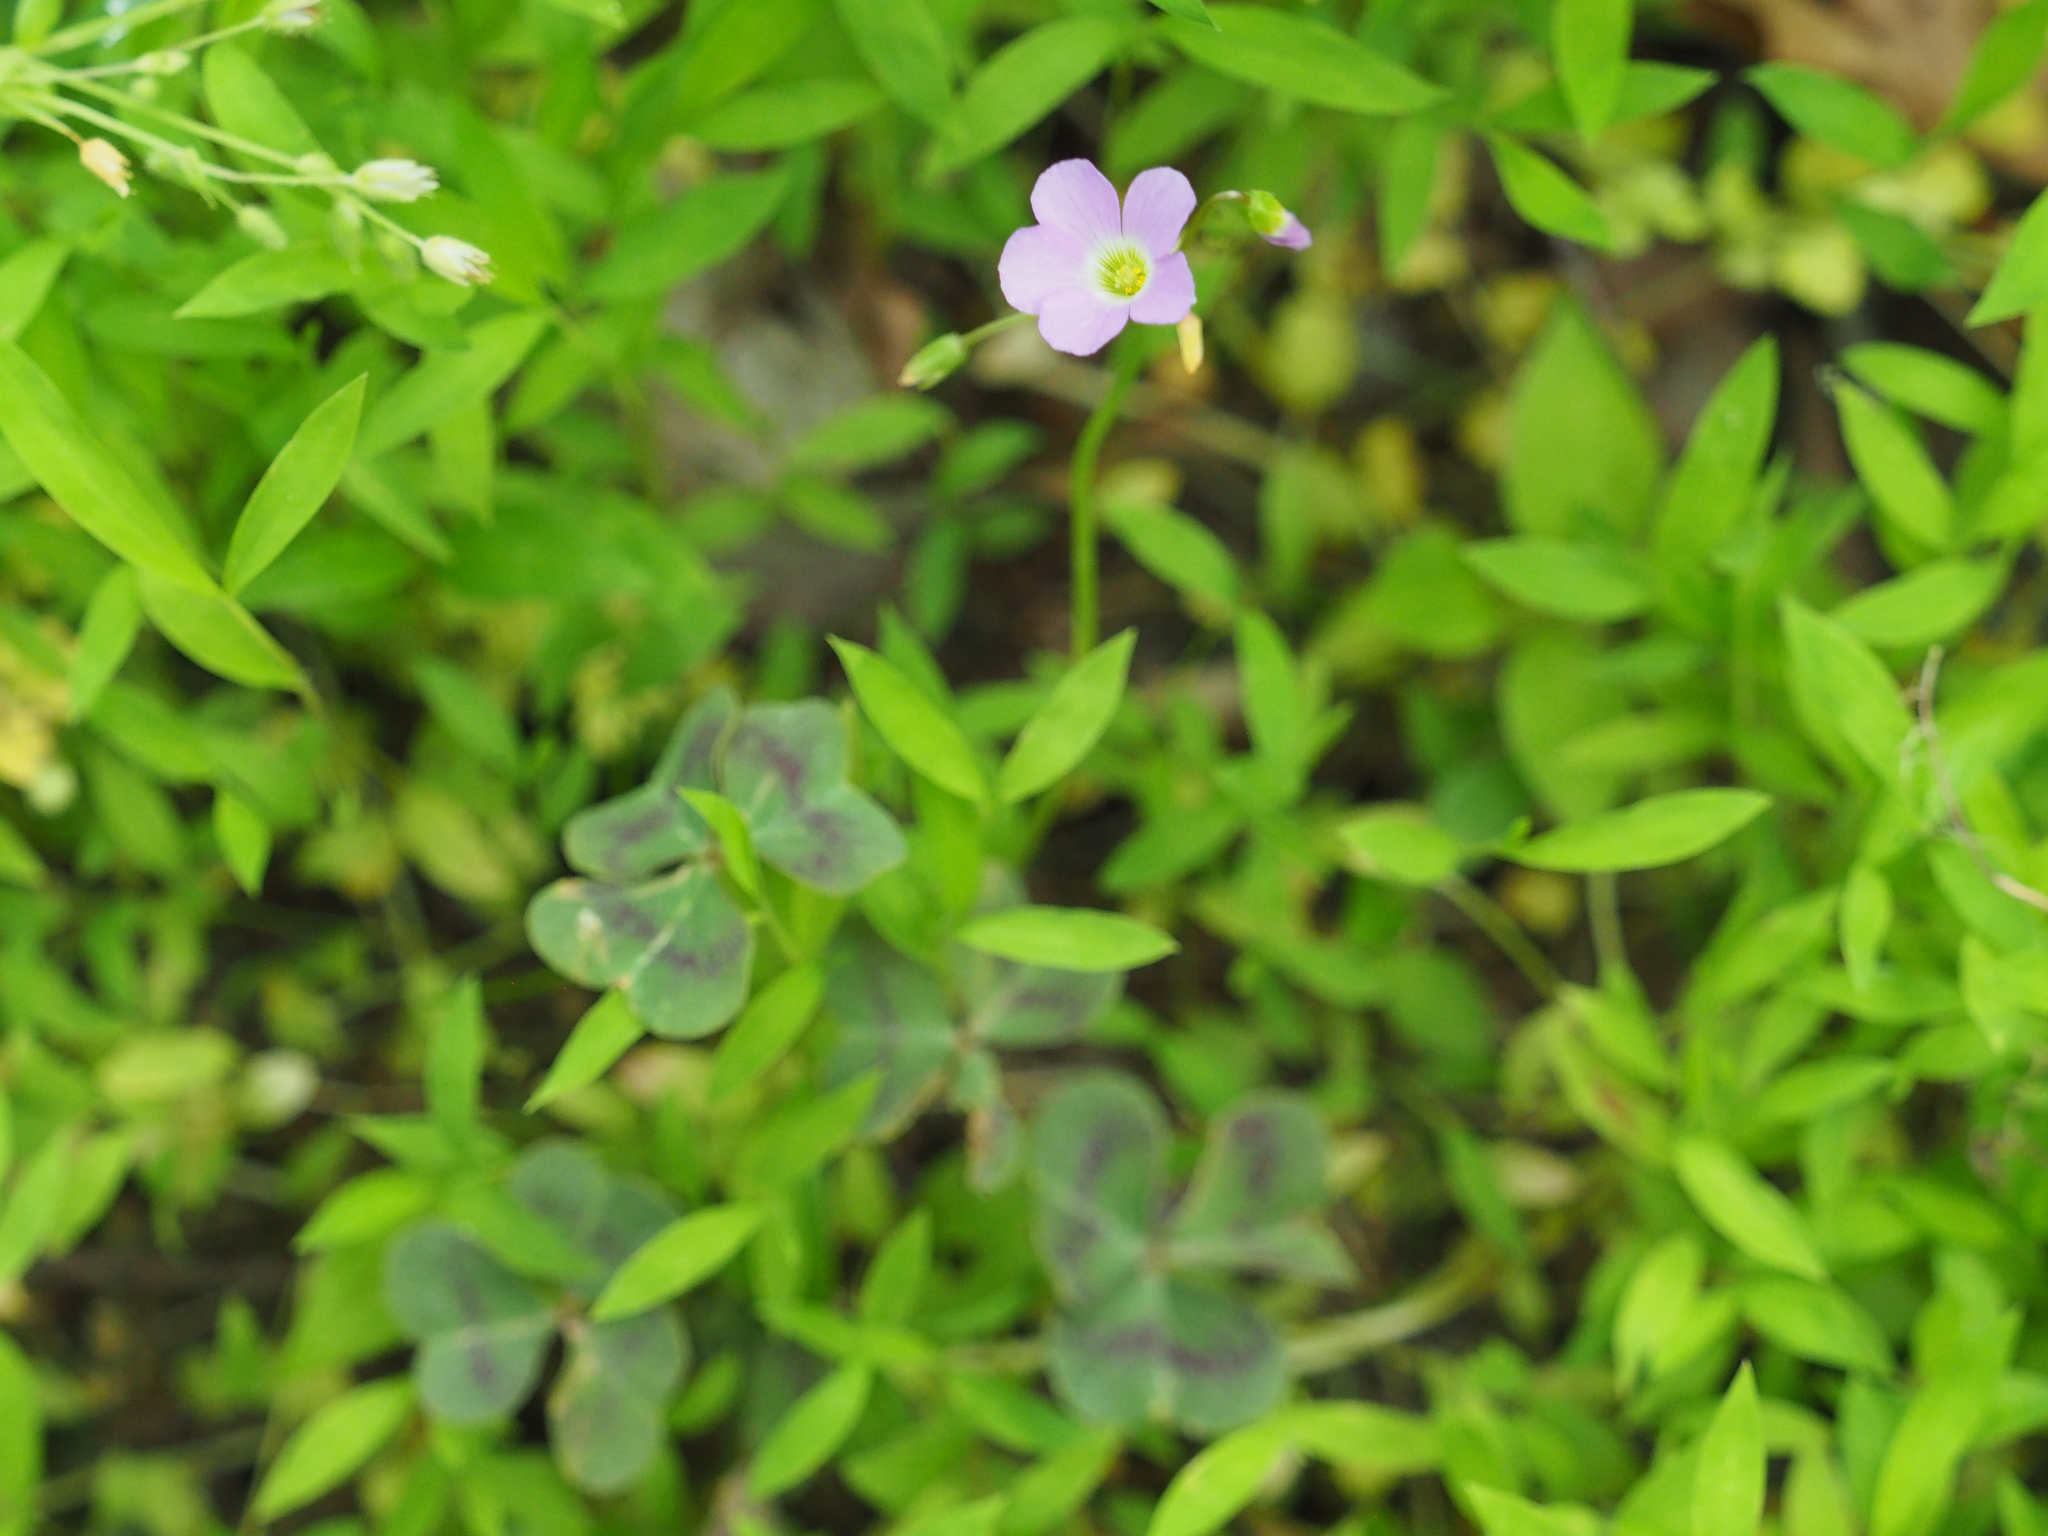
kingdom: Plantae
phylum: Tracheophyta
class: Magnoliopsida
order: Oxalidales
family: Oxalidaceae
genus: Oxalis
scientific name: Oxalis violacea
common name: Violet wood-sorrel
